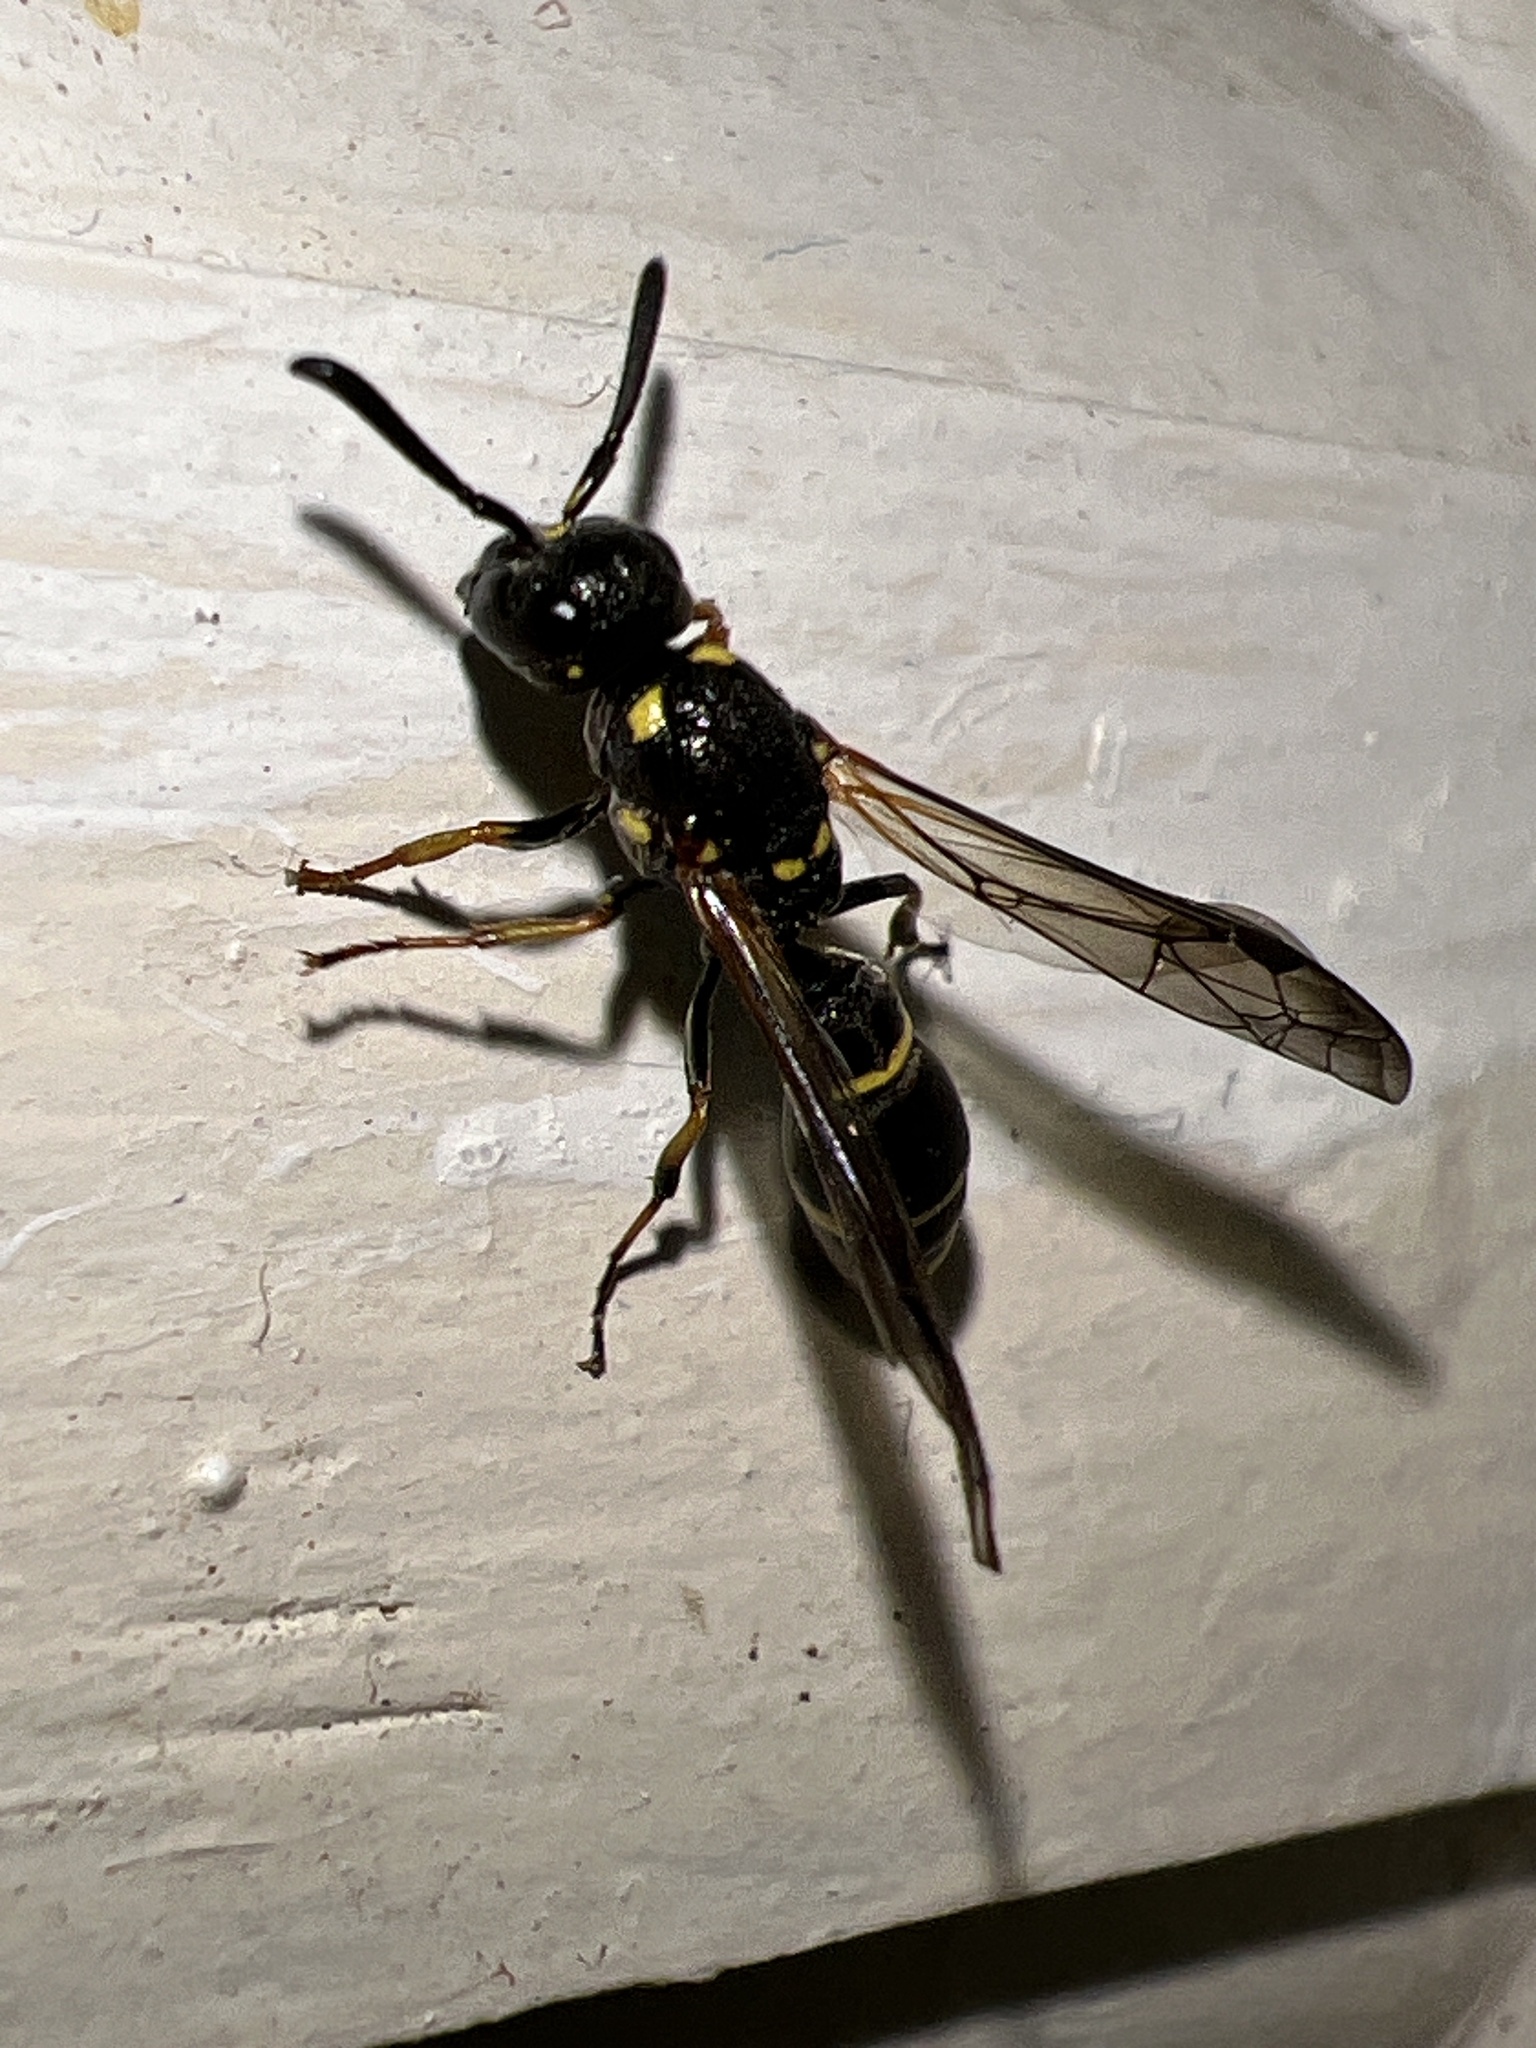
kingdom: Animalia
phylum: Arthropoda
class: Insecta
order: Hymenoptera
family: Eumenidae
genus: Symmorphus
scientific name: Symmorphus
